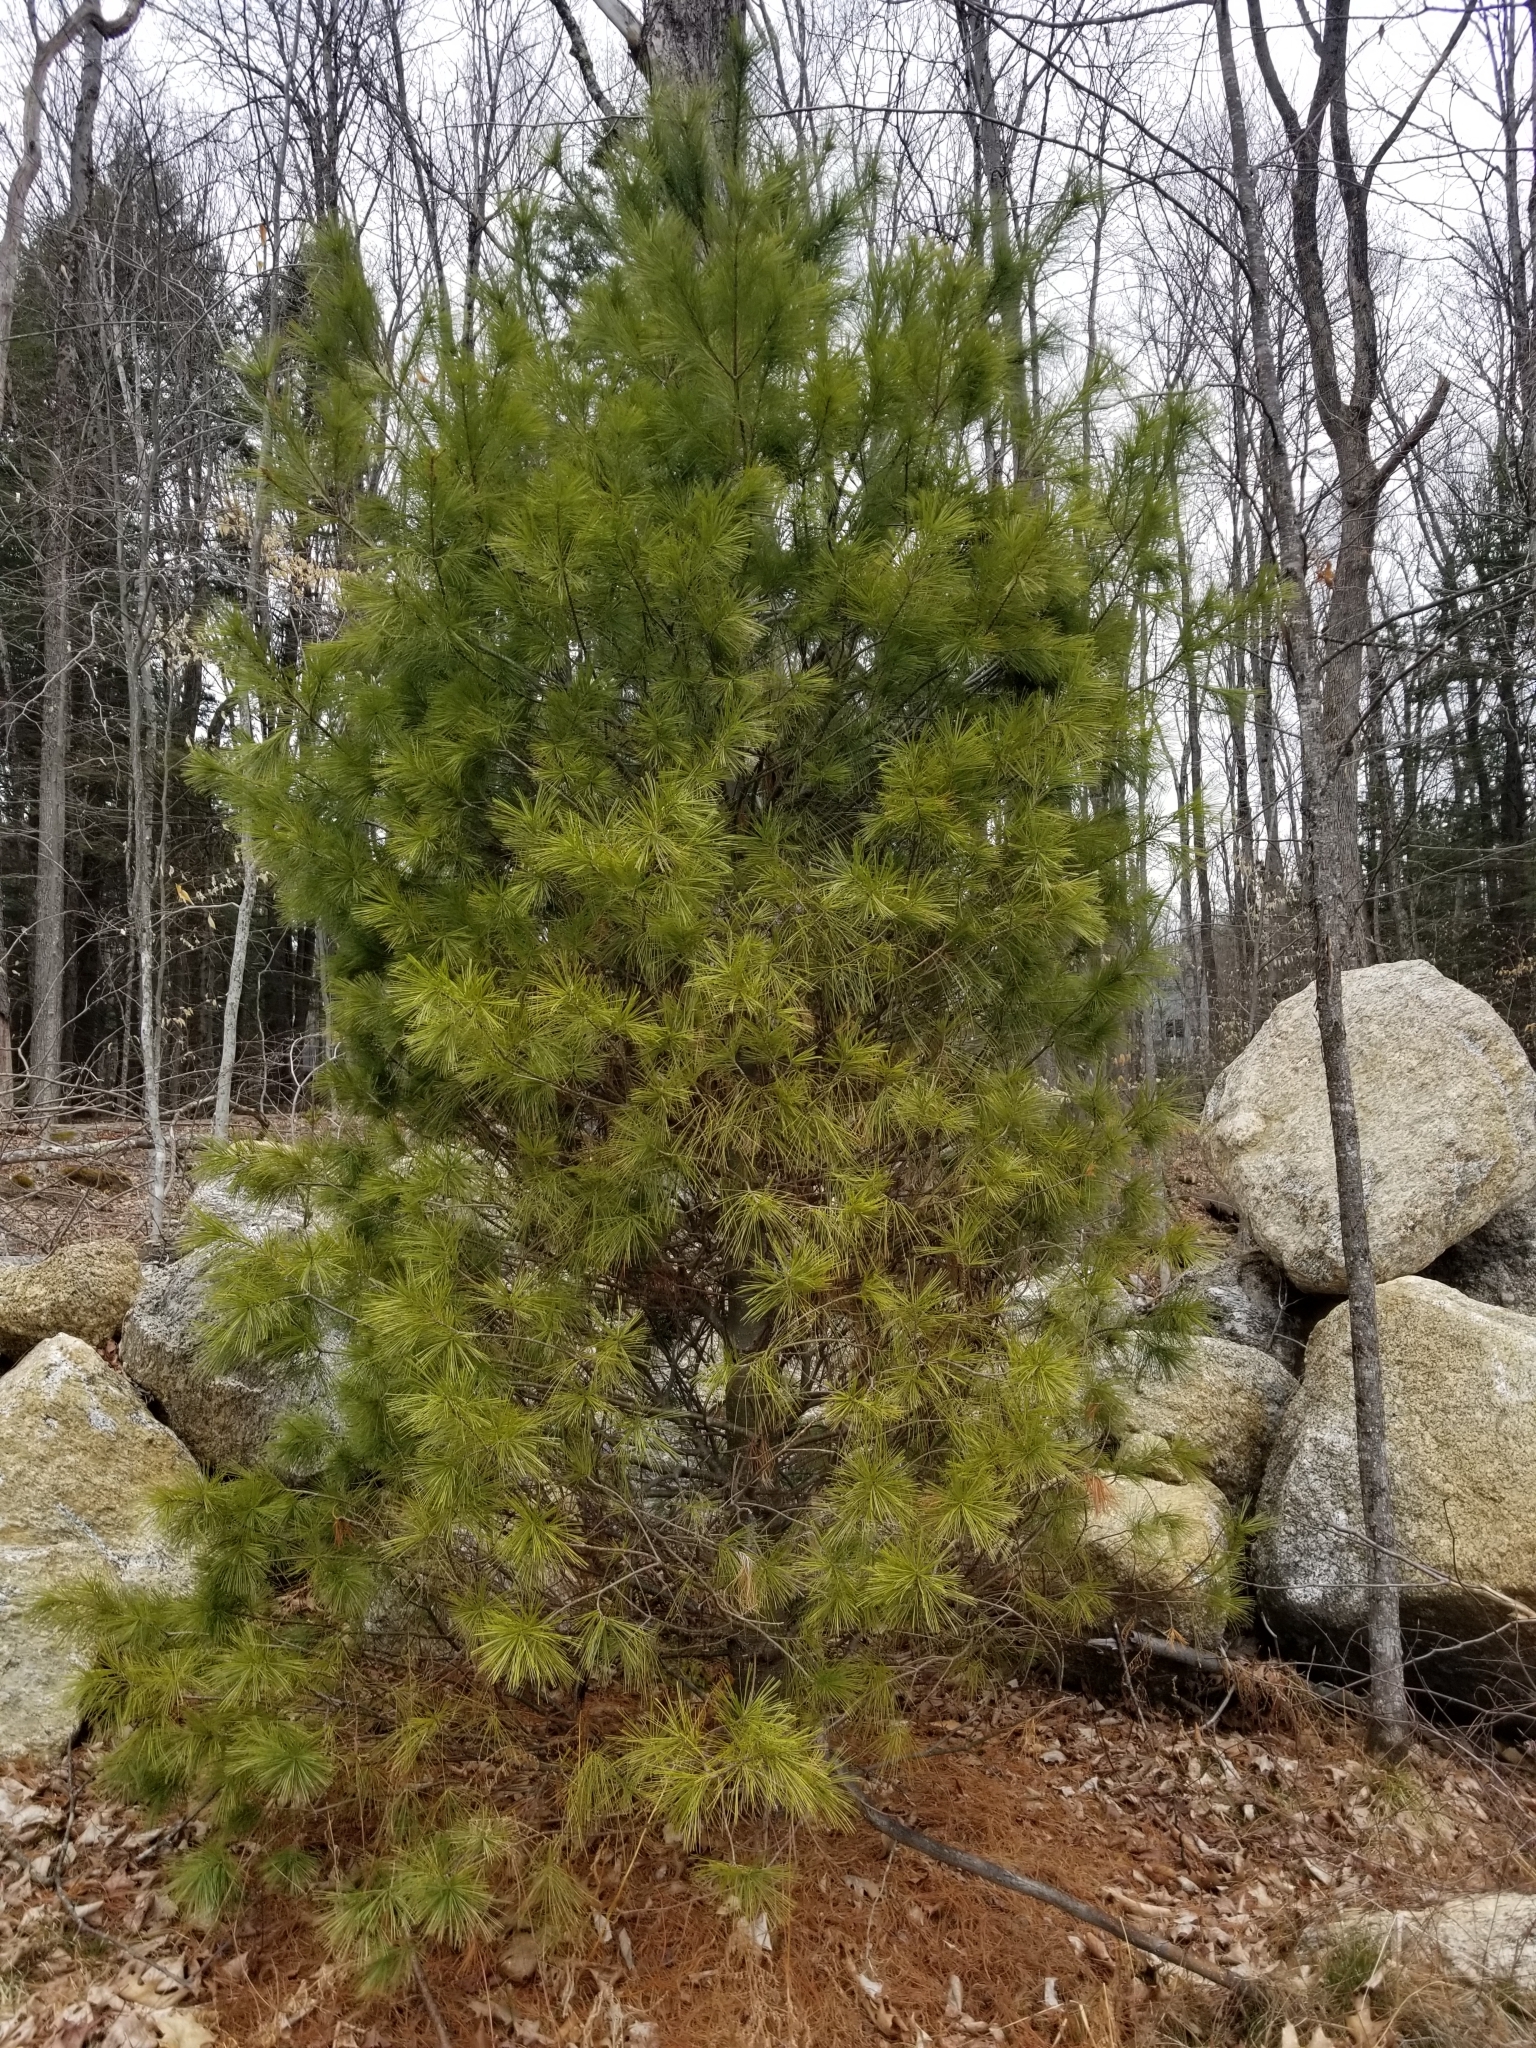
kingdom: Plantae
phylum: Tracheophyta
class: Pinopsida
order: Pinales
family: Pinaceae
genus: Pinus
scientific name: Pinus strobus
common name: Weymouth pine
